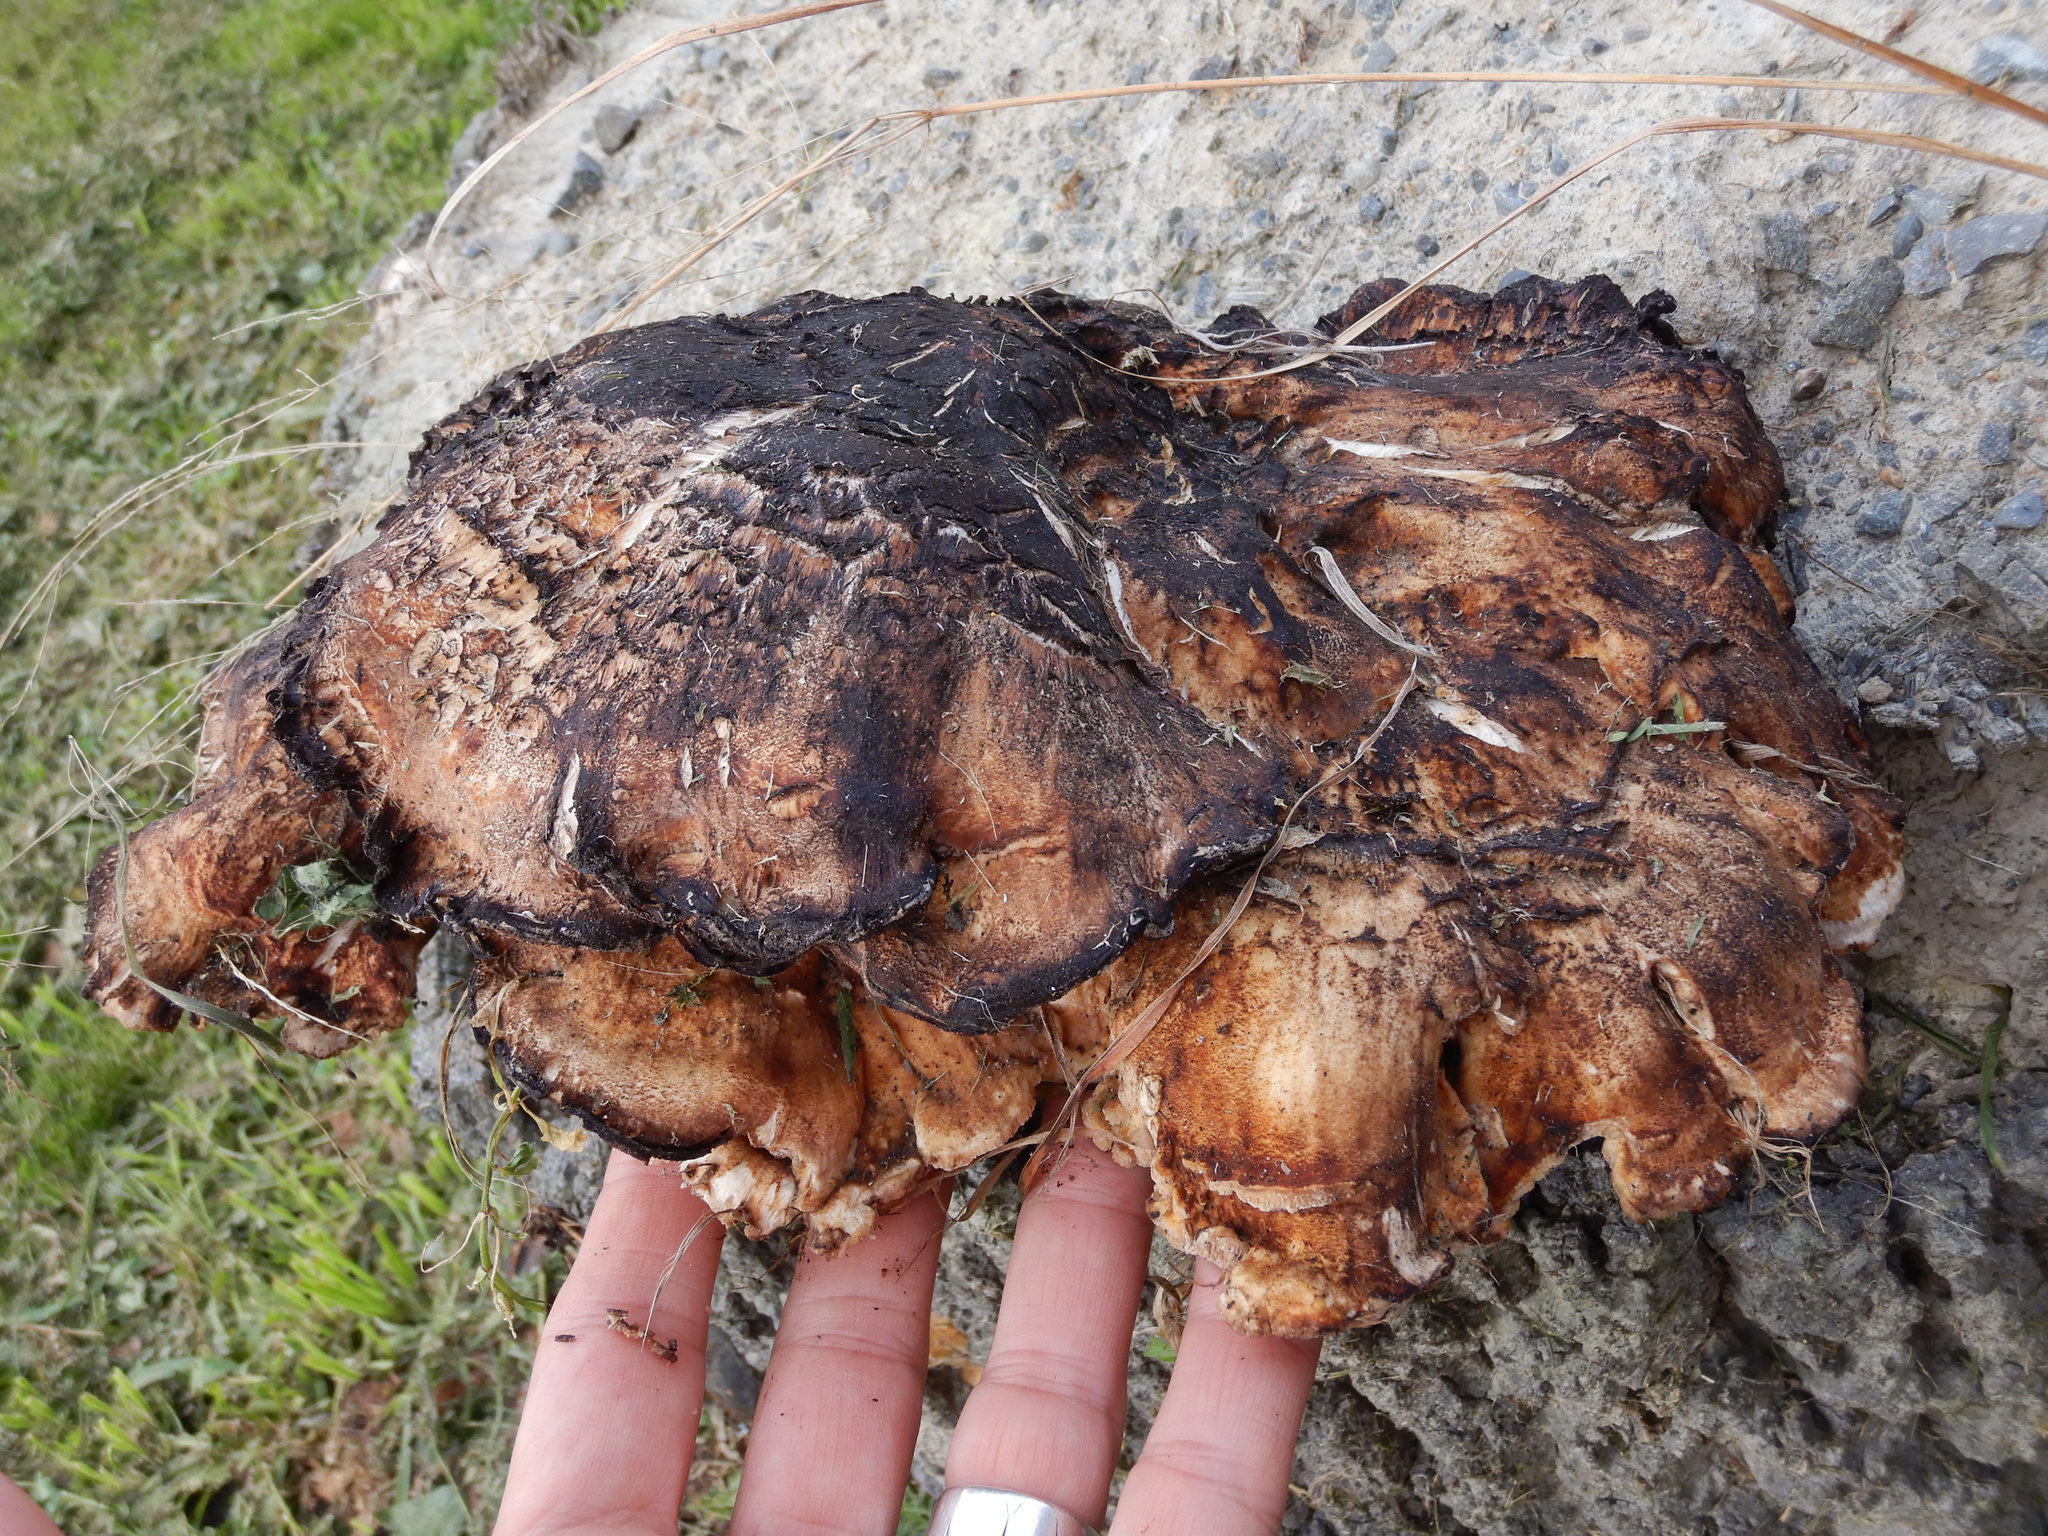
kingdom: Fungi
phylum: Basidiomycota
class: Agaricomycetes
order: Polyporales
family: Meripilaceae
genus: Meripilus
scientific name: Meripilus giganteus
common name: Giant polypore
